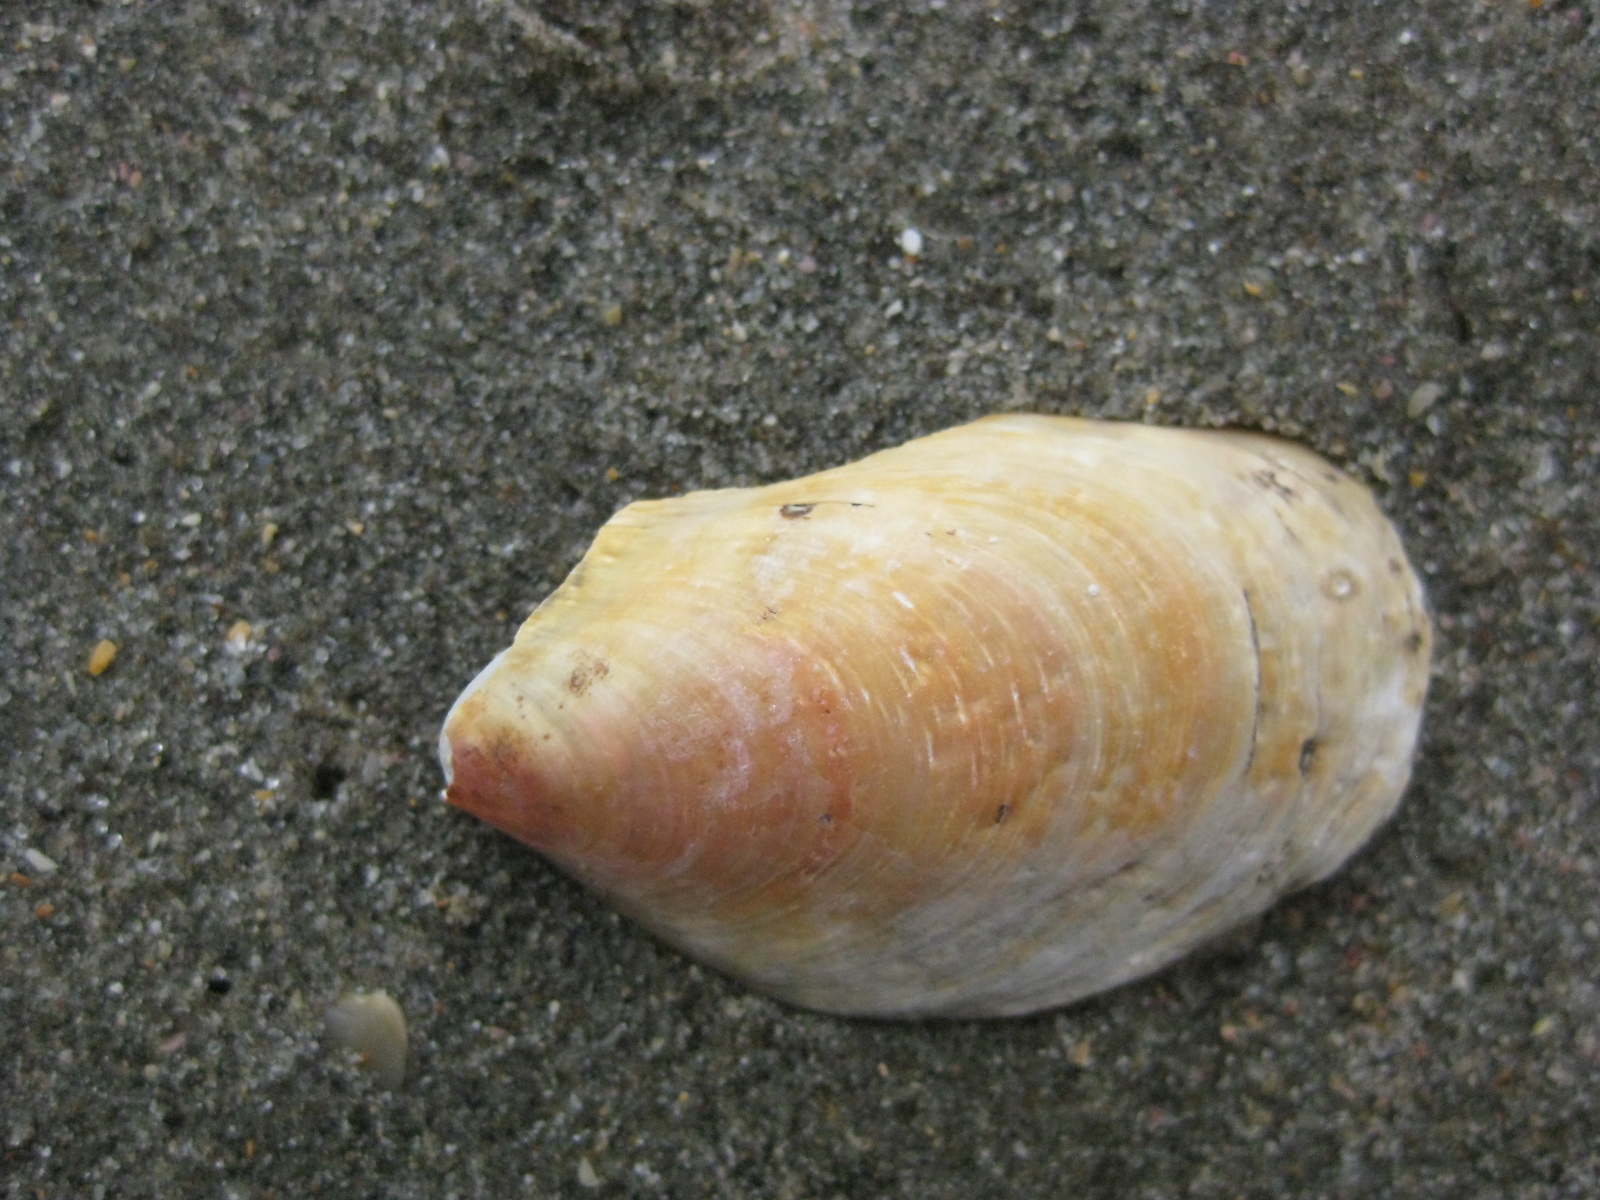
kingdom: Animalia
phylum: Mollusca
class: Bivalvia
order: Mytilida
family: Mytilidae
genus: Modiolus
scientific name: Modiolus areolatus
